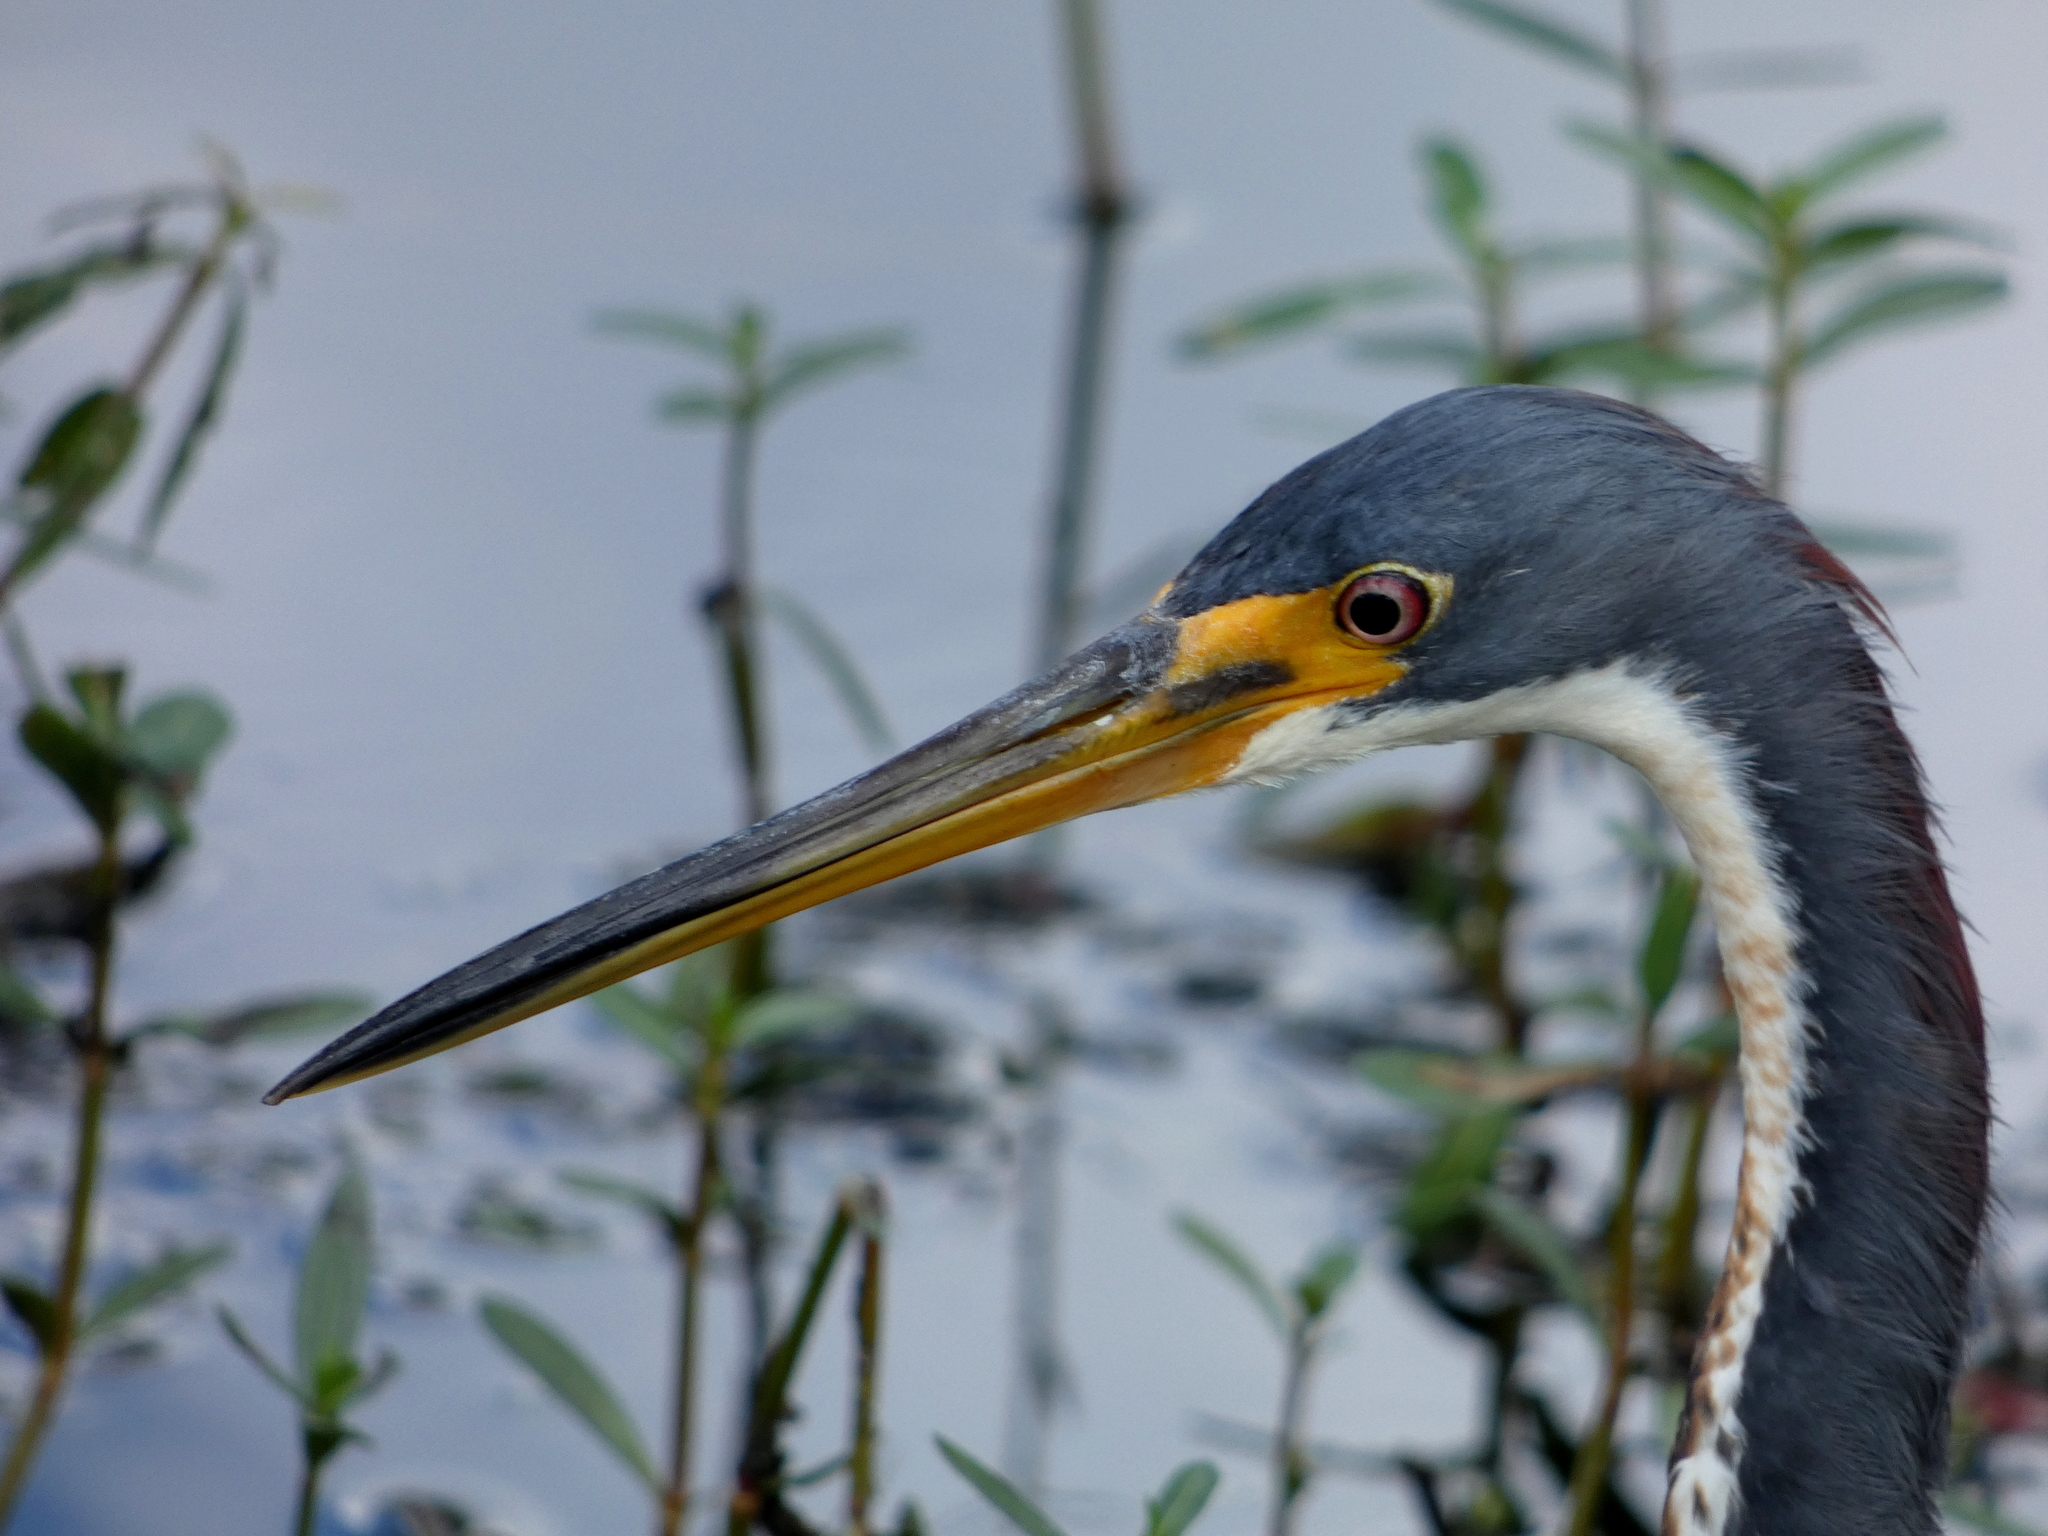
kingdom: Animalia
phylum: Chordata
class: Aves
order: Pelecaniformes
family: Ardeidae
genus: Egretta
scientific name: Egretta tricolor
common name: Tricolored heron
